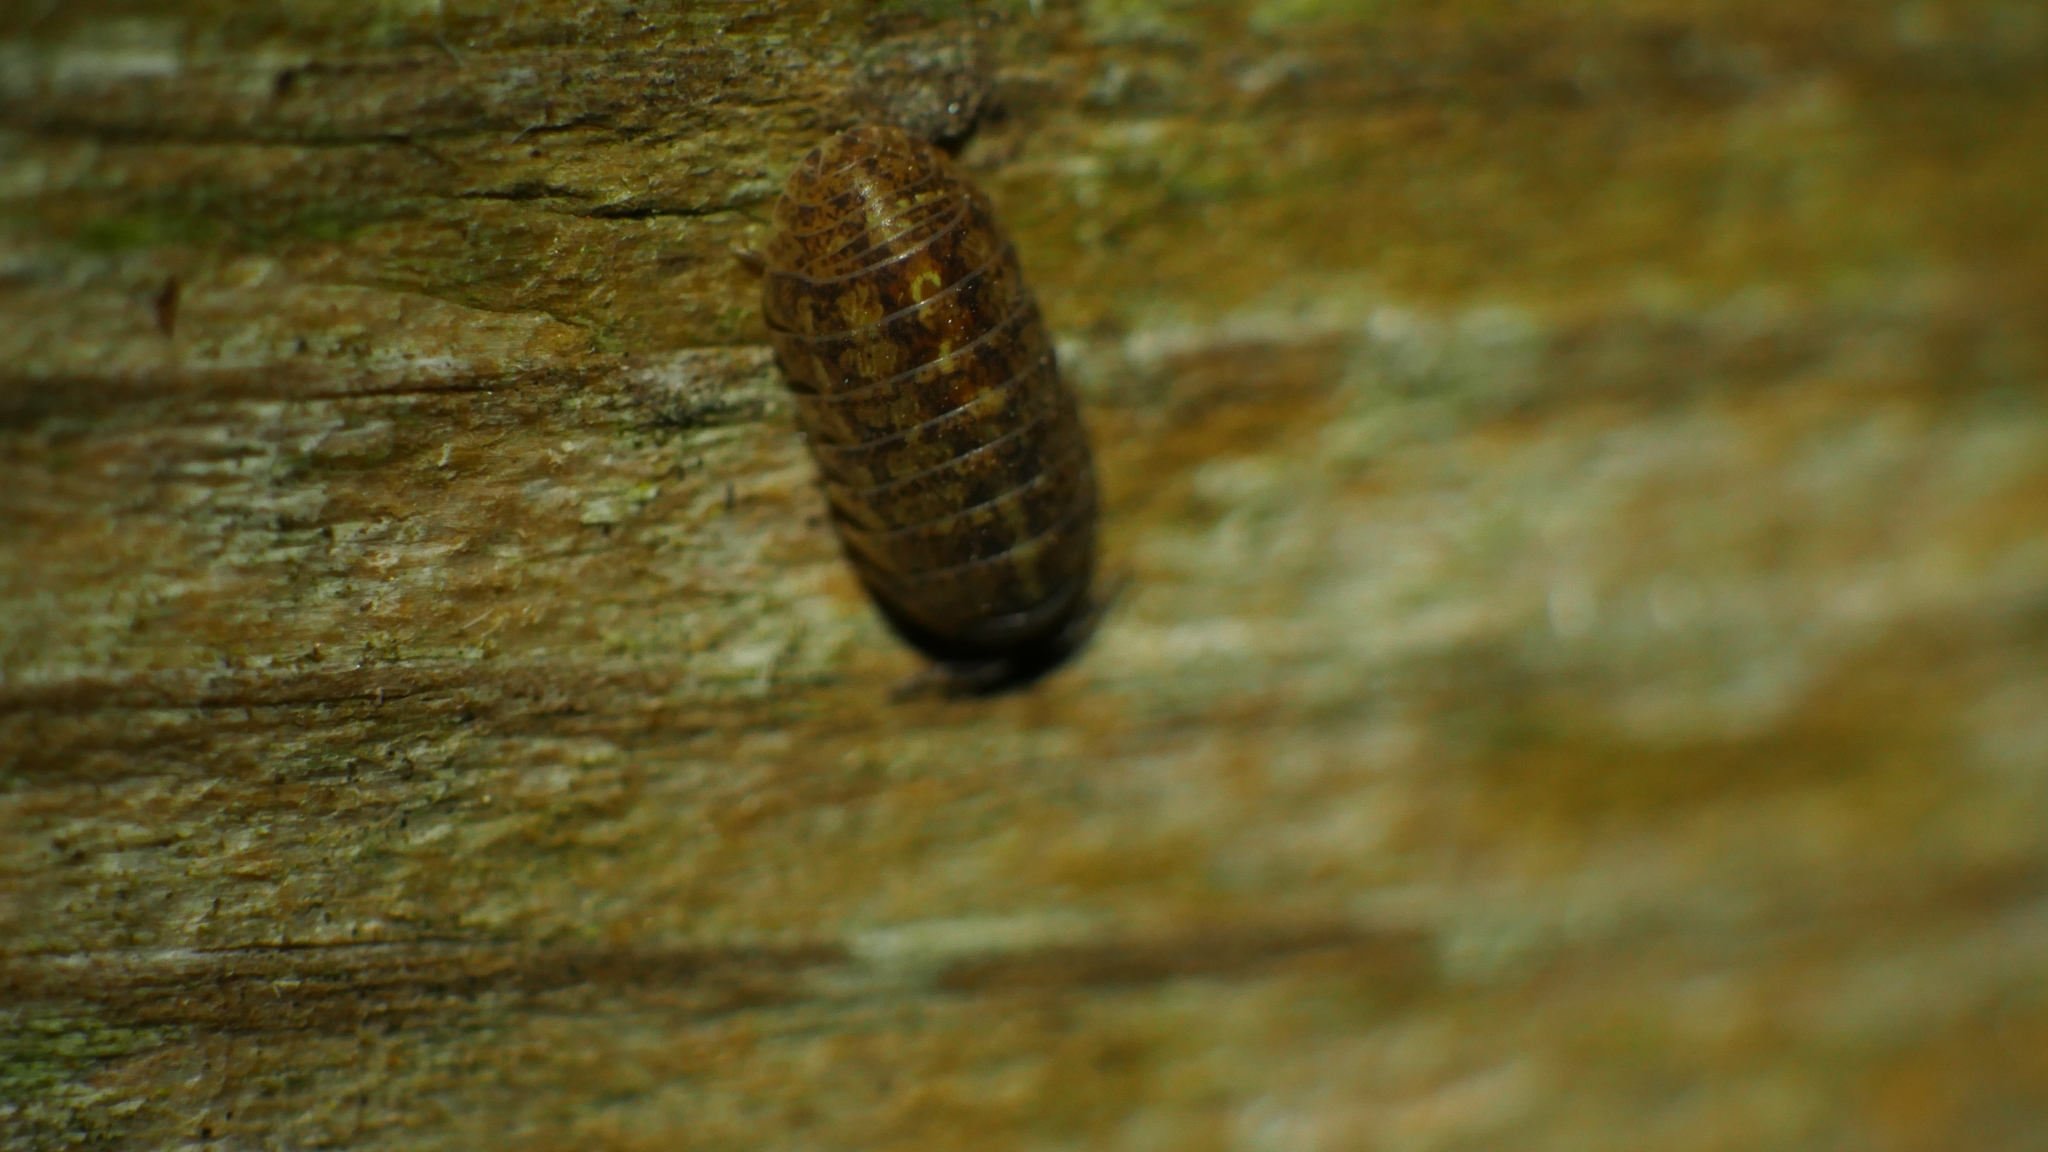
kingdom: Animalia
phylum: Arthropoda
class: Malacostraca
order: Isopoda
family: Armadillidiidae
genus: Armadillidium
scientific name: Armadillidium vulgare
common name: Common pill woodlouse
